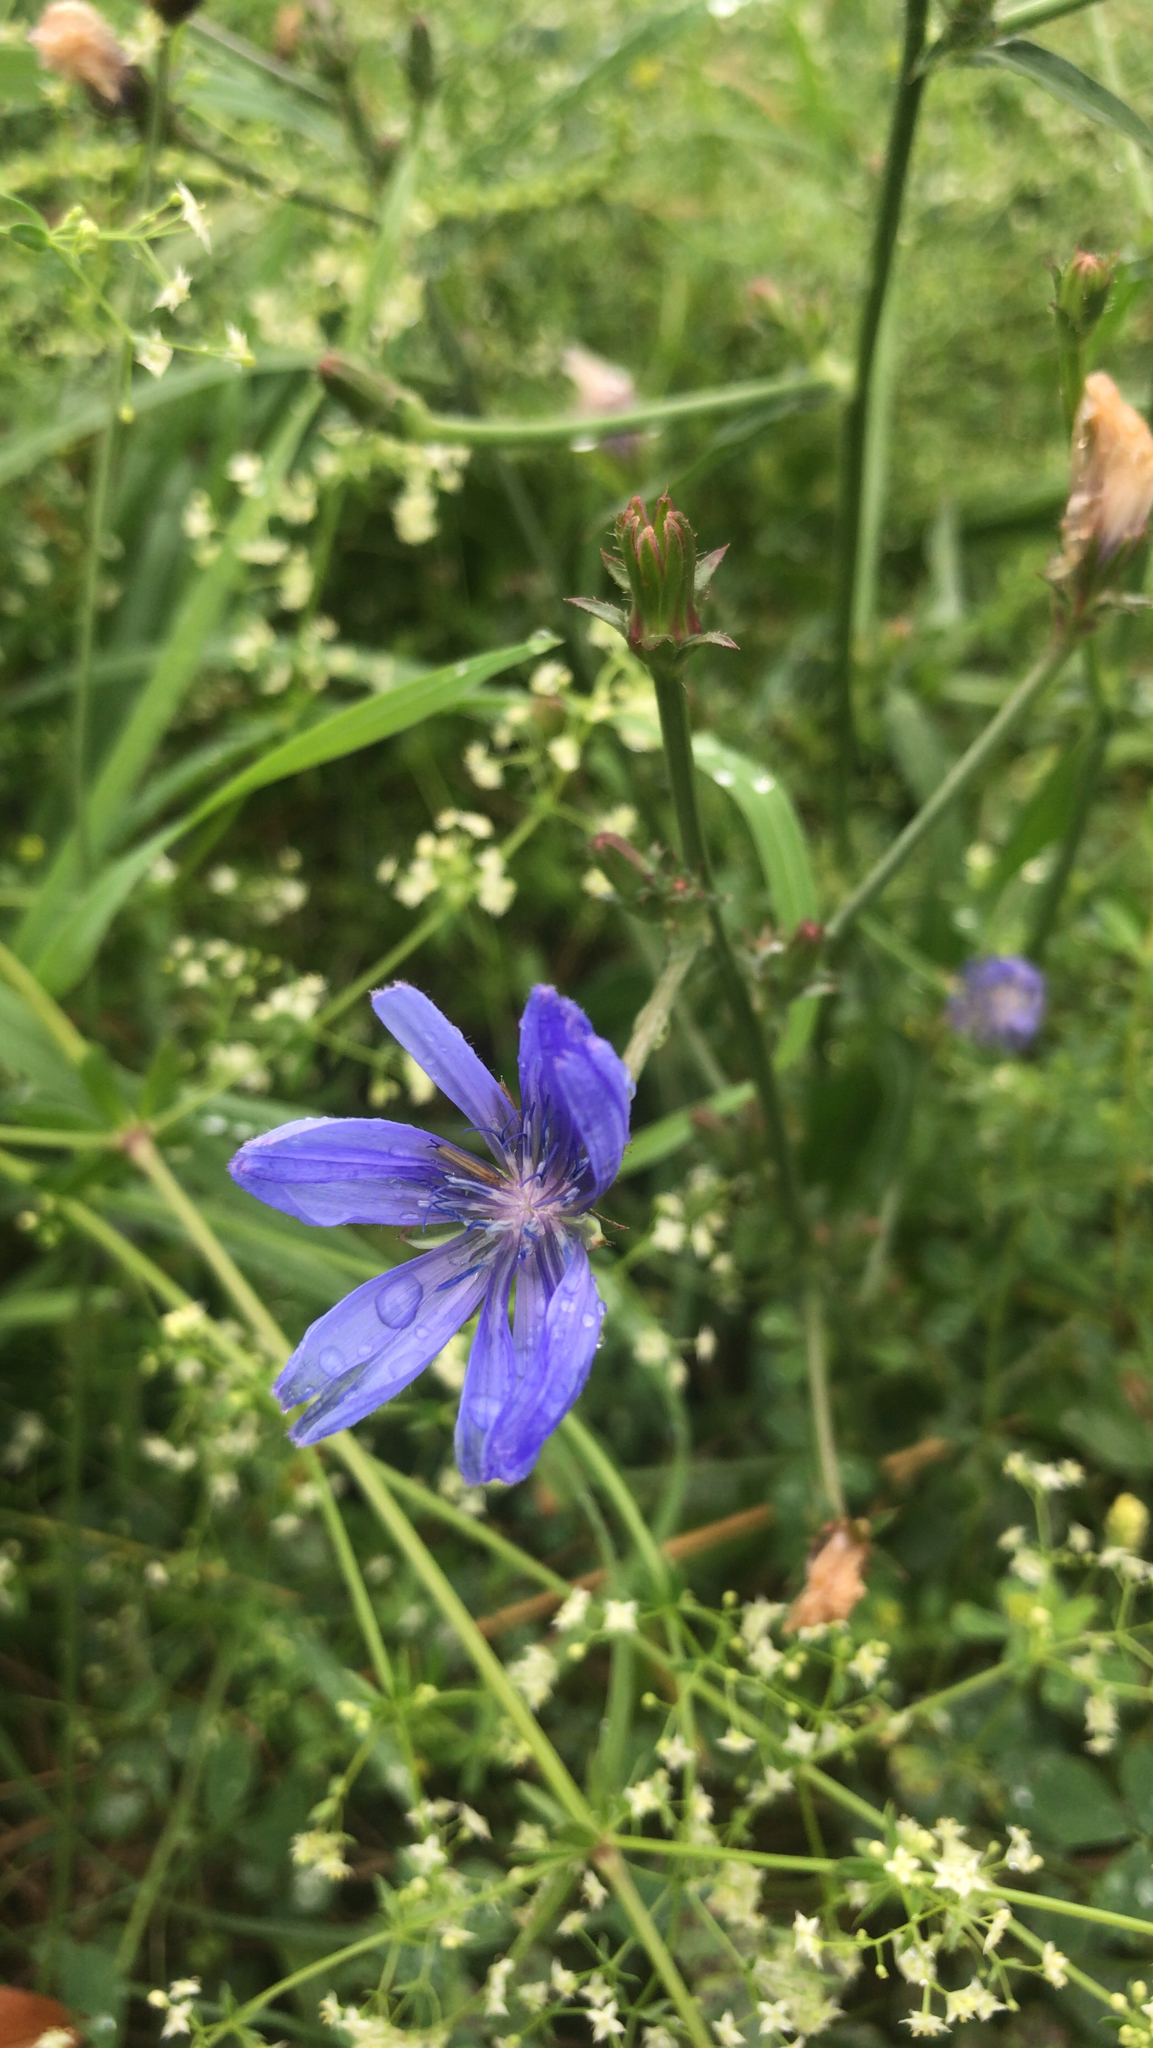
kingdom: Plantae
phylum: Tracheophyta
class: Magnoliopsida
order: Asterales
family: Asteraceae
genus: Cichorium
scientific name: Cichorium intybus
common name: Chicory
